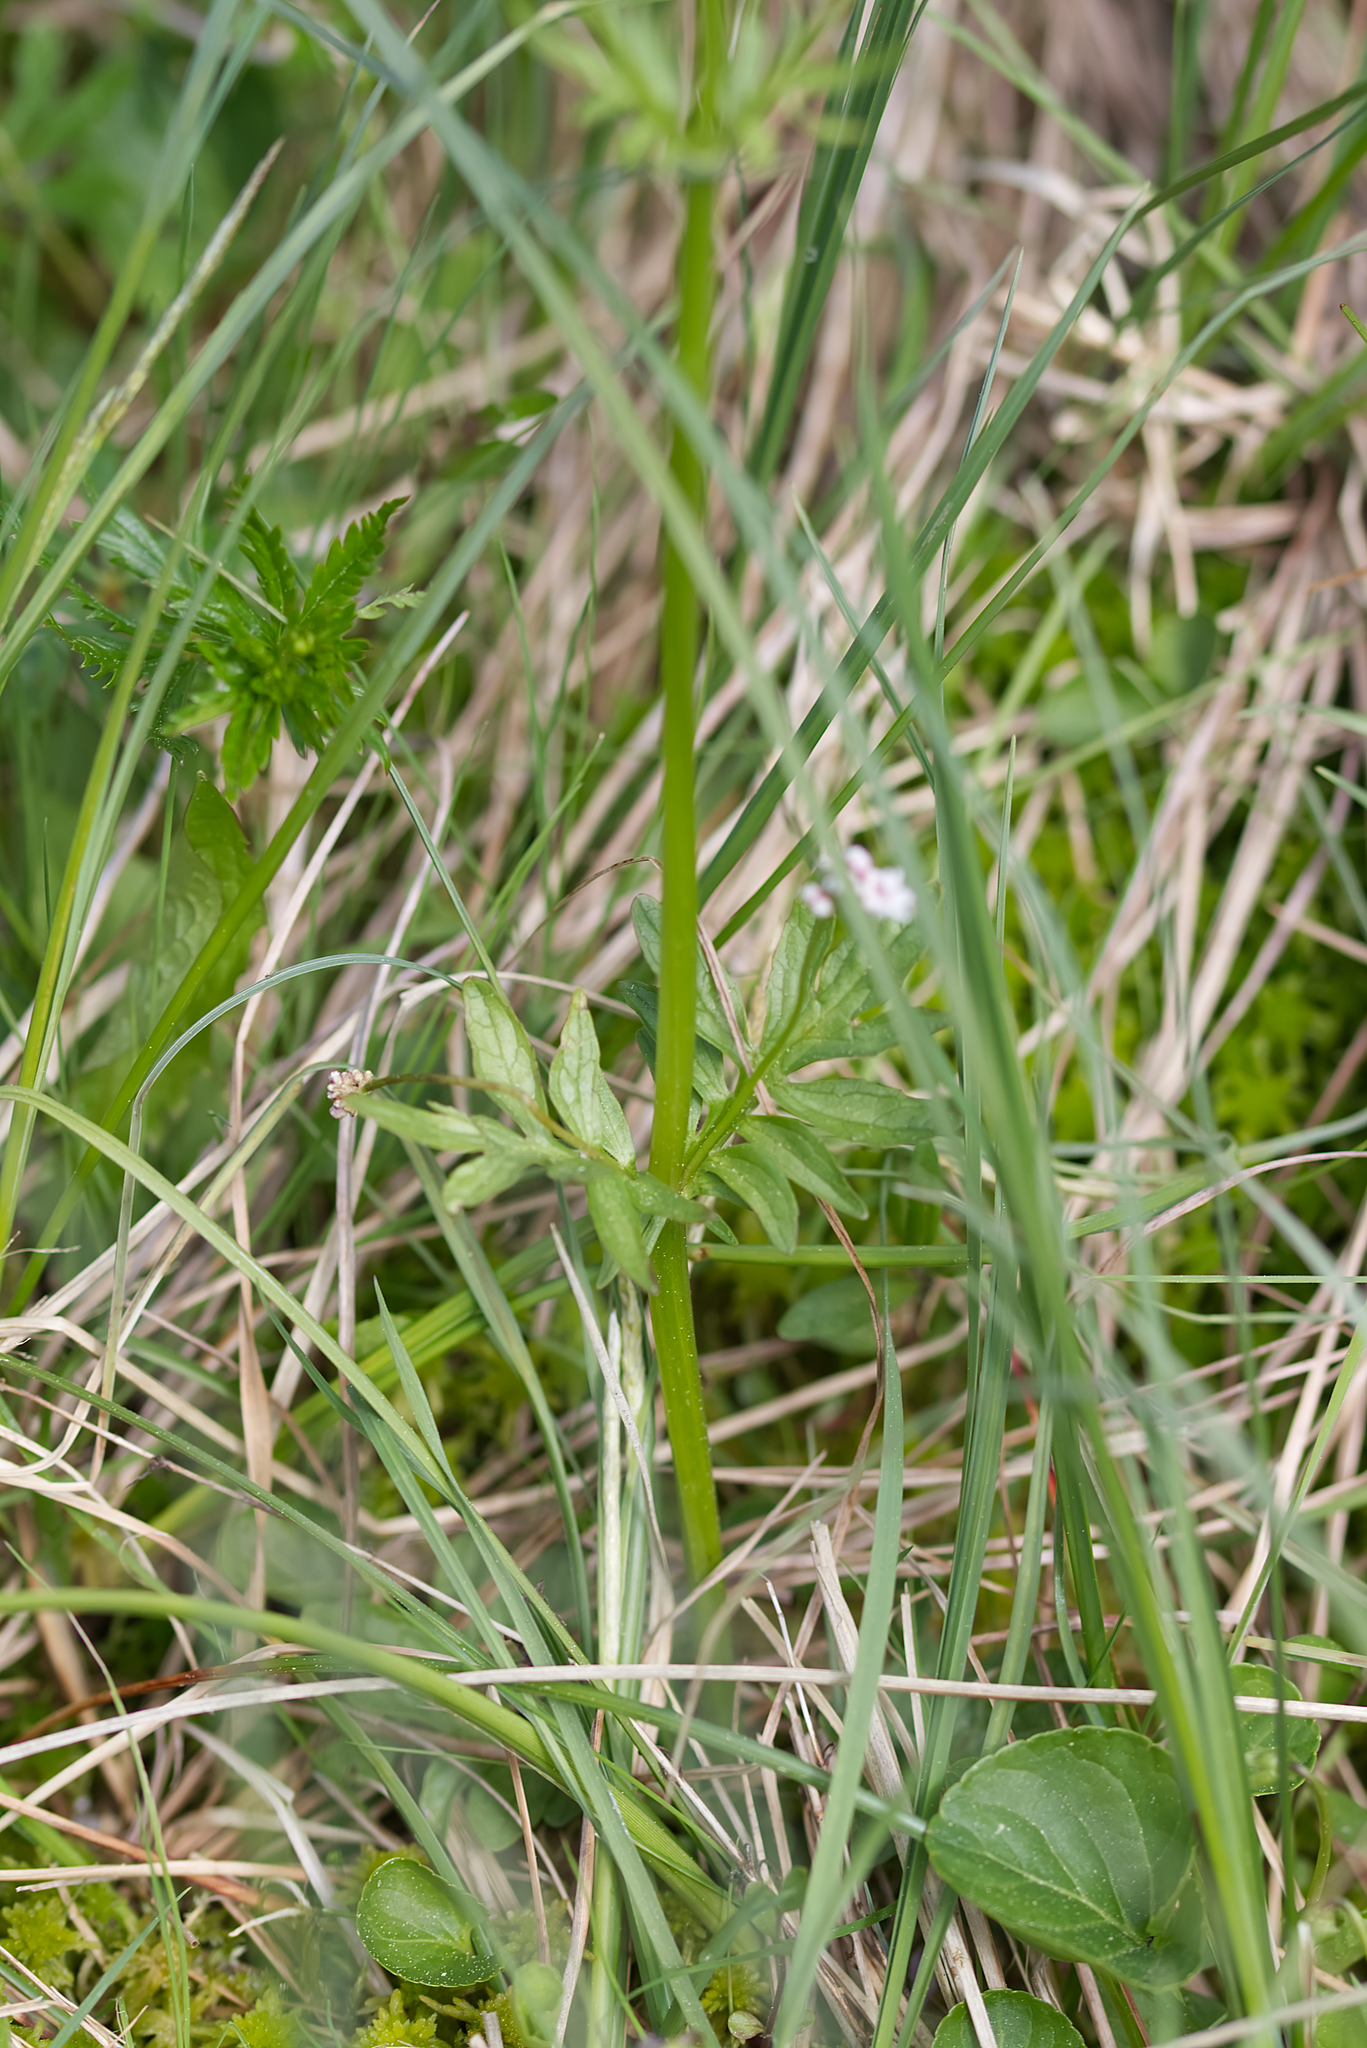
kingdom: Plantae
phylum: Tracheophyta
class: Magnoliopsida
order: Dipsacales
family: Caprifoliaceae
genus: Valeriana
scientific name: Valeriana dioica
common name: Marsh valerian
